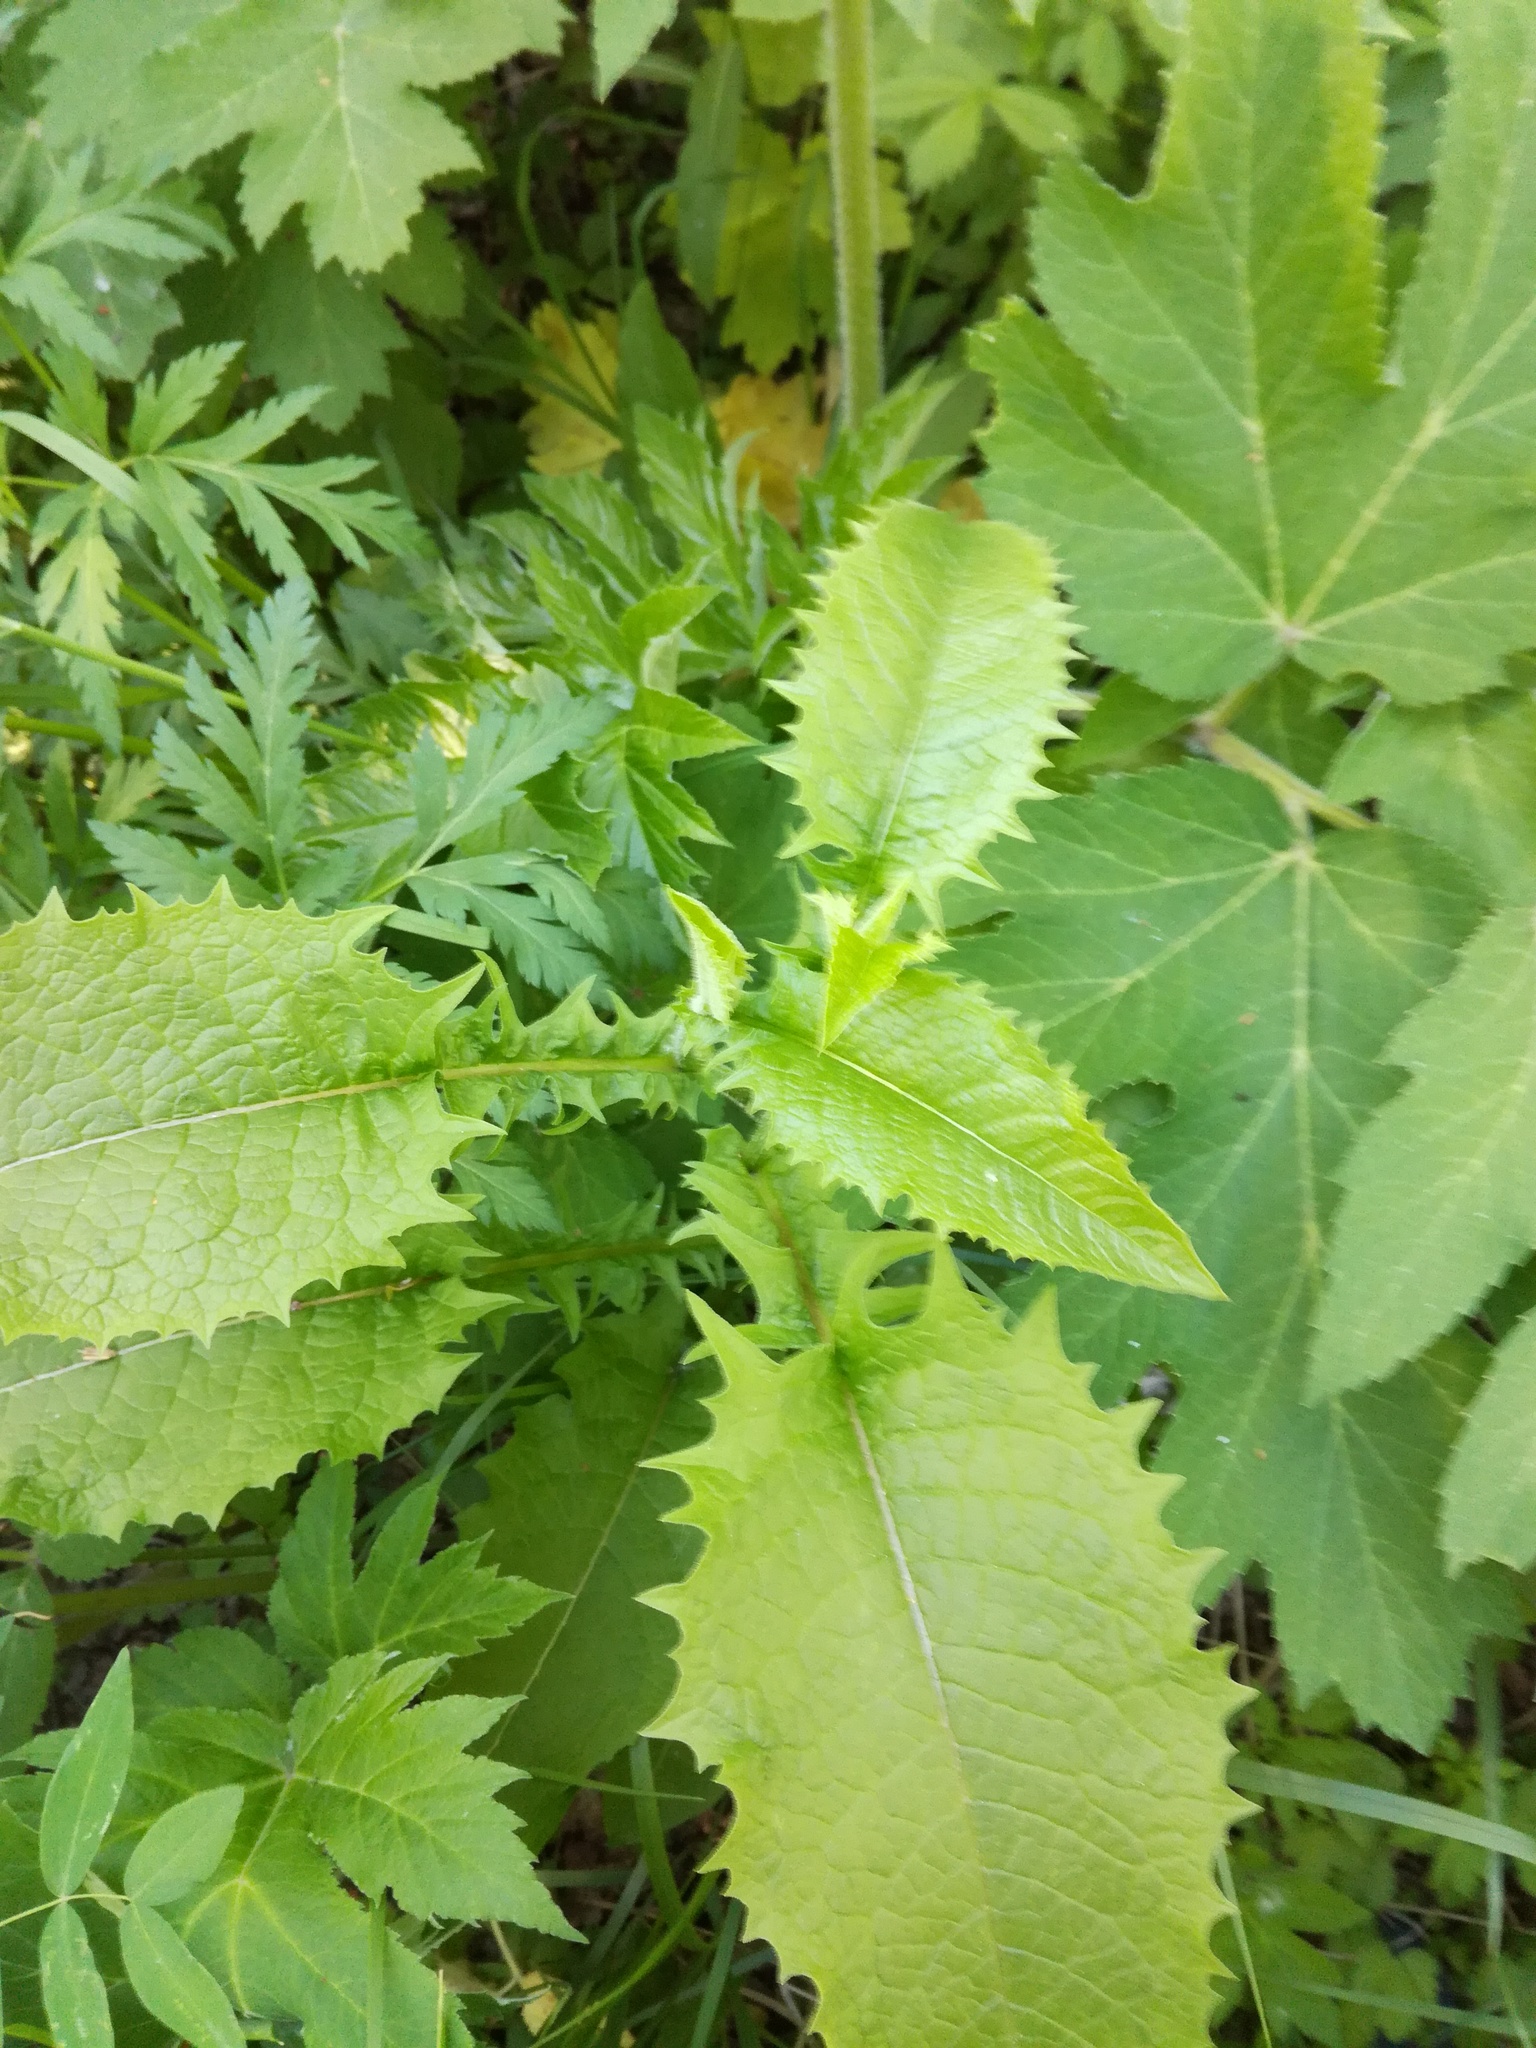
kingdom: Plantae
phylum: Tracheophyta
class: Magnoliopsida
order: Asterales
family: Asteraceae
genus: Crepis
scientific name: Crepis sibirica
